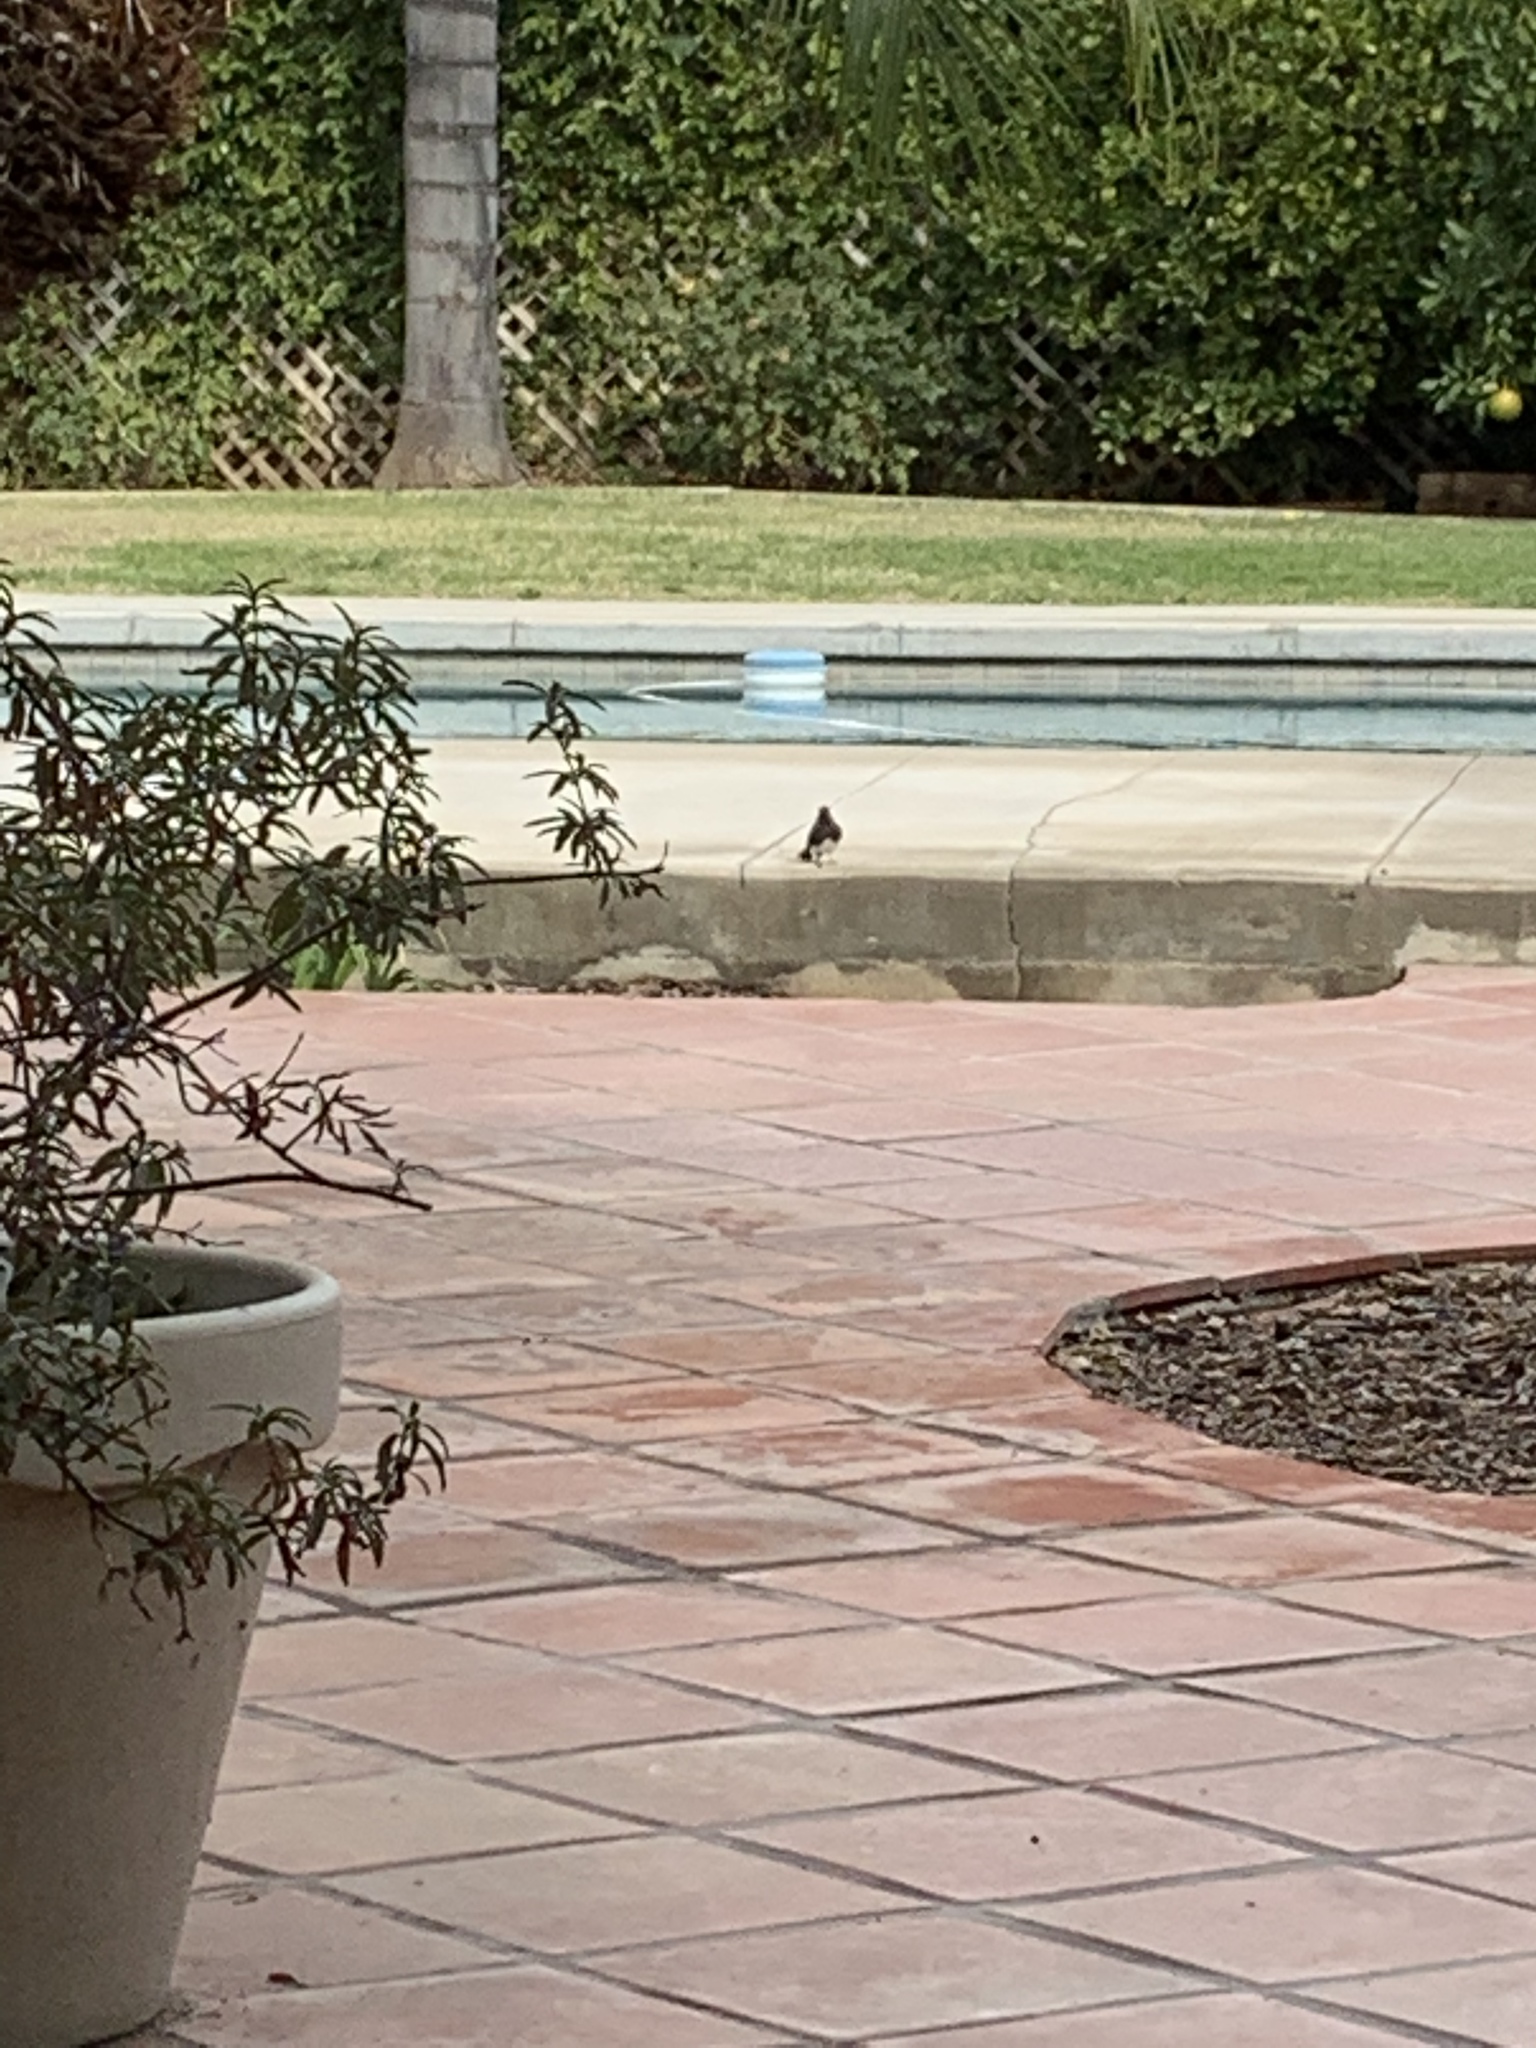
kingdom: Animalia
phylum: Chordata
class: Aves
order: Passeriformes
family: Tyrannidae
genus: Sayornis
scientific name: Sayornis nigricans
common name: Black phoebe
